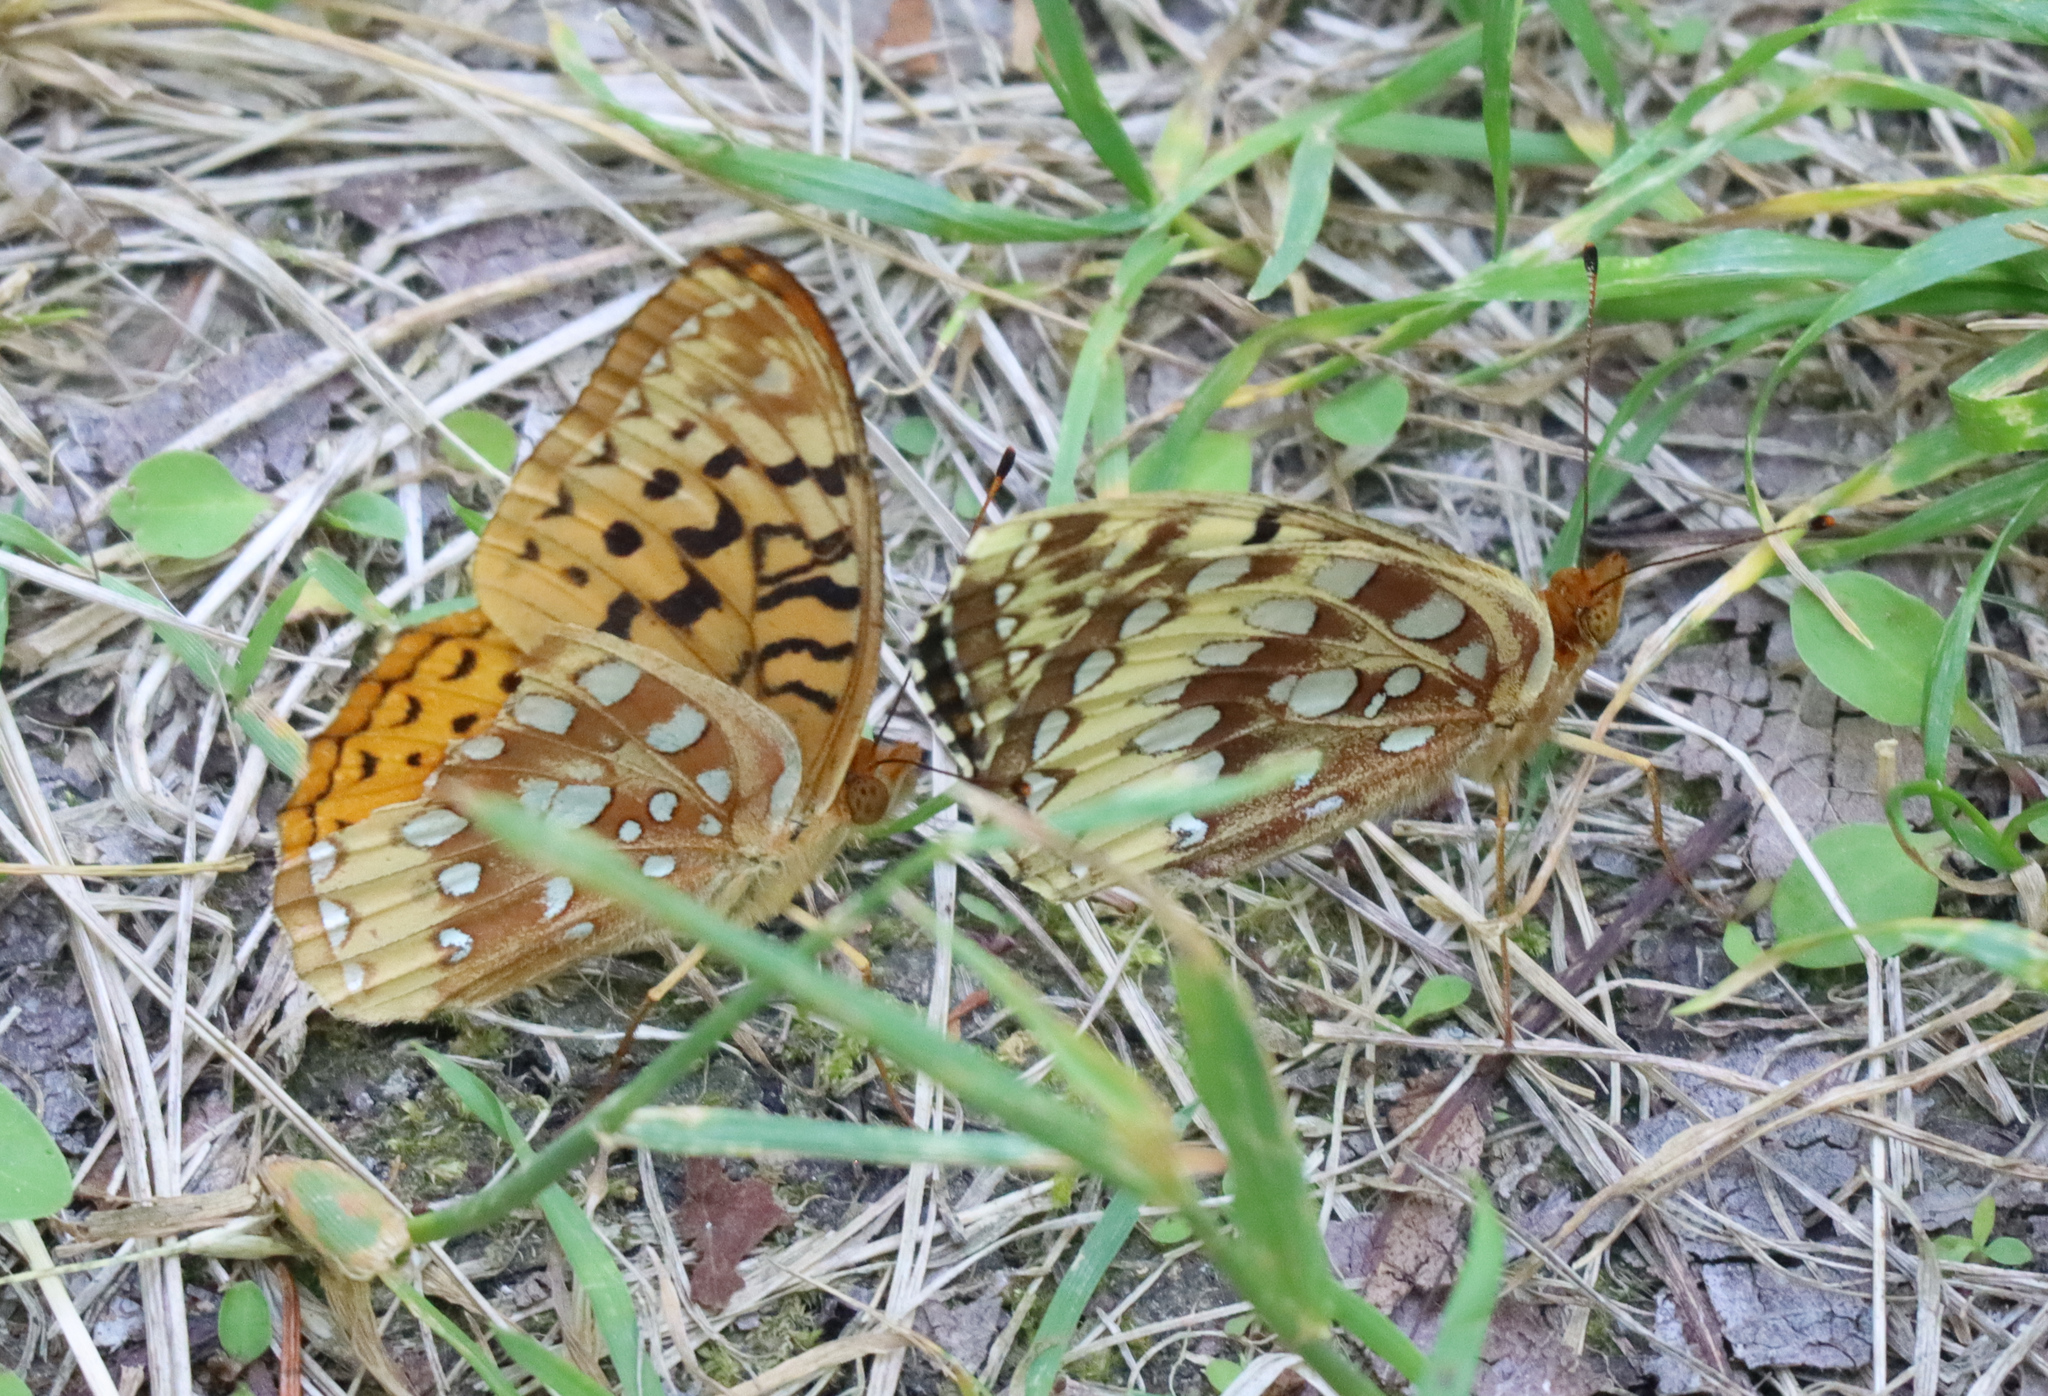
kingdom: Animalia
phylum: Arthropoda
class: Insecta
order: Lepidoptera
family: Nymphalidae
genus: Speyeria
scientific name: Speyeria cybele
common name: Great spangled fritillary
